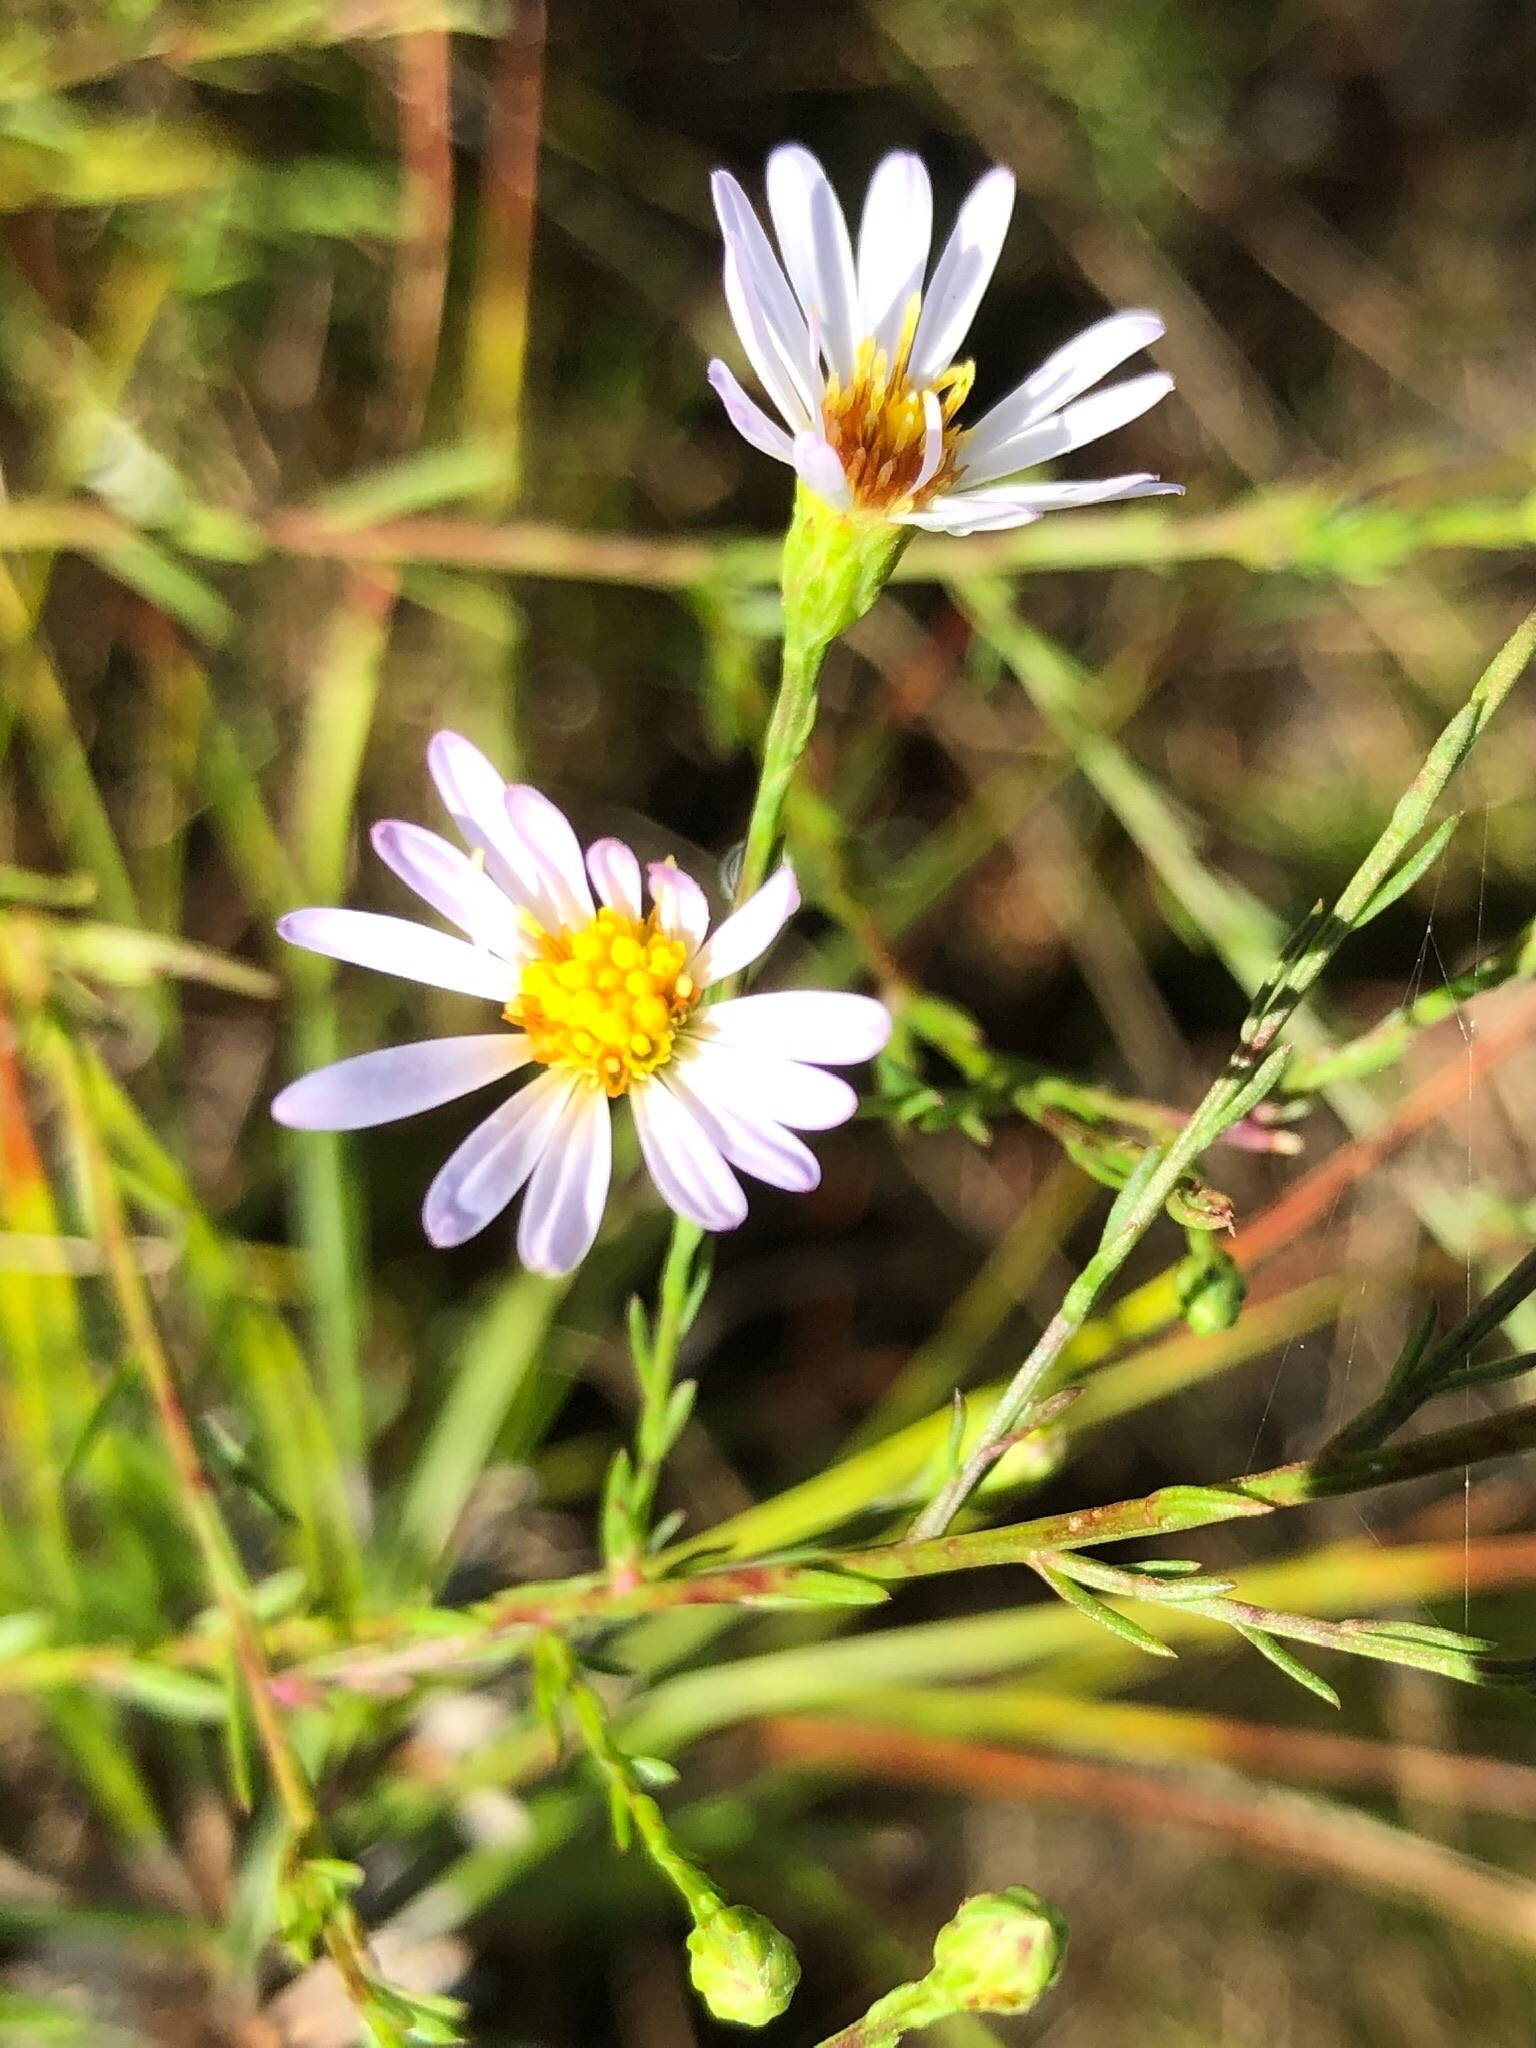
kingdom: Plantae
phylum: Tracheophyta
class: Magnoliopsida
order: Asterales
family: Asteraceae
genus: Symphyotrichum
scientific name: Symphyotrichum dumosum
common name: Bushy aster
